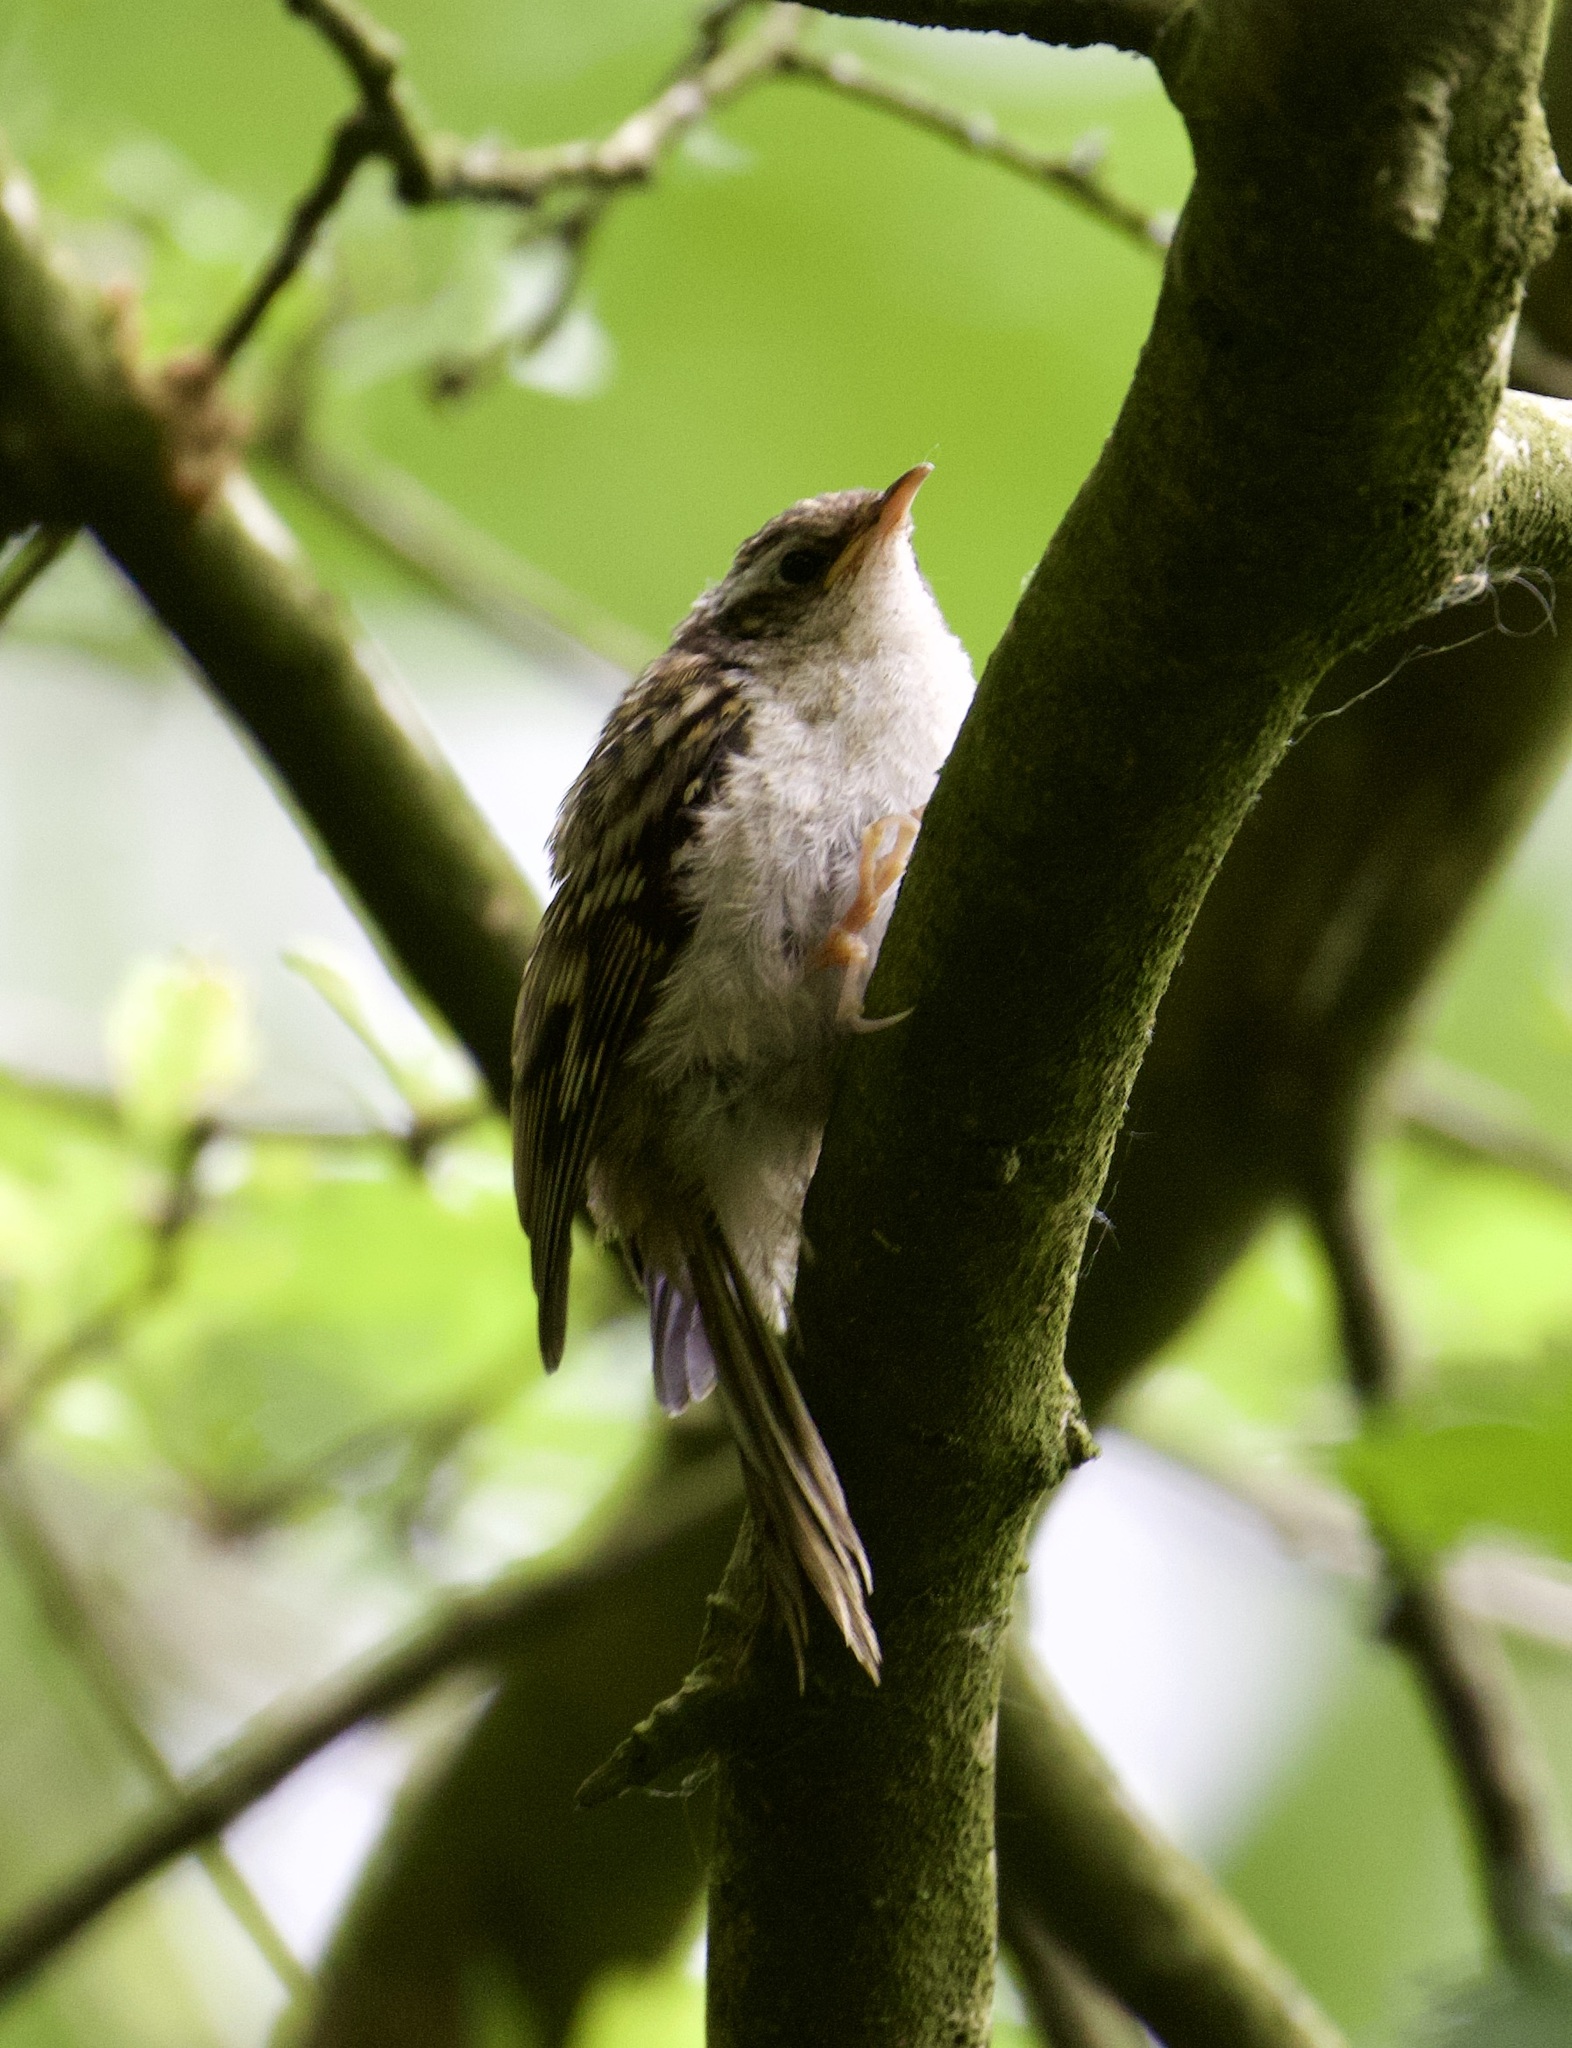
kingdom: Animalia
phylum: Chordata
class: Aves
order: Passeriformes
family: Certhiidae
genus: Certhia
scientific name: Certhia familiaris
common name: Eurasian treecreeper
